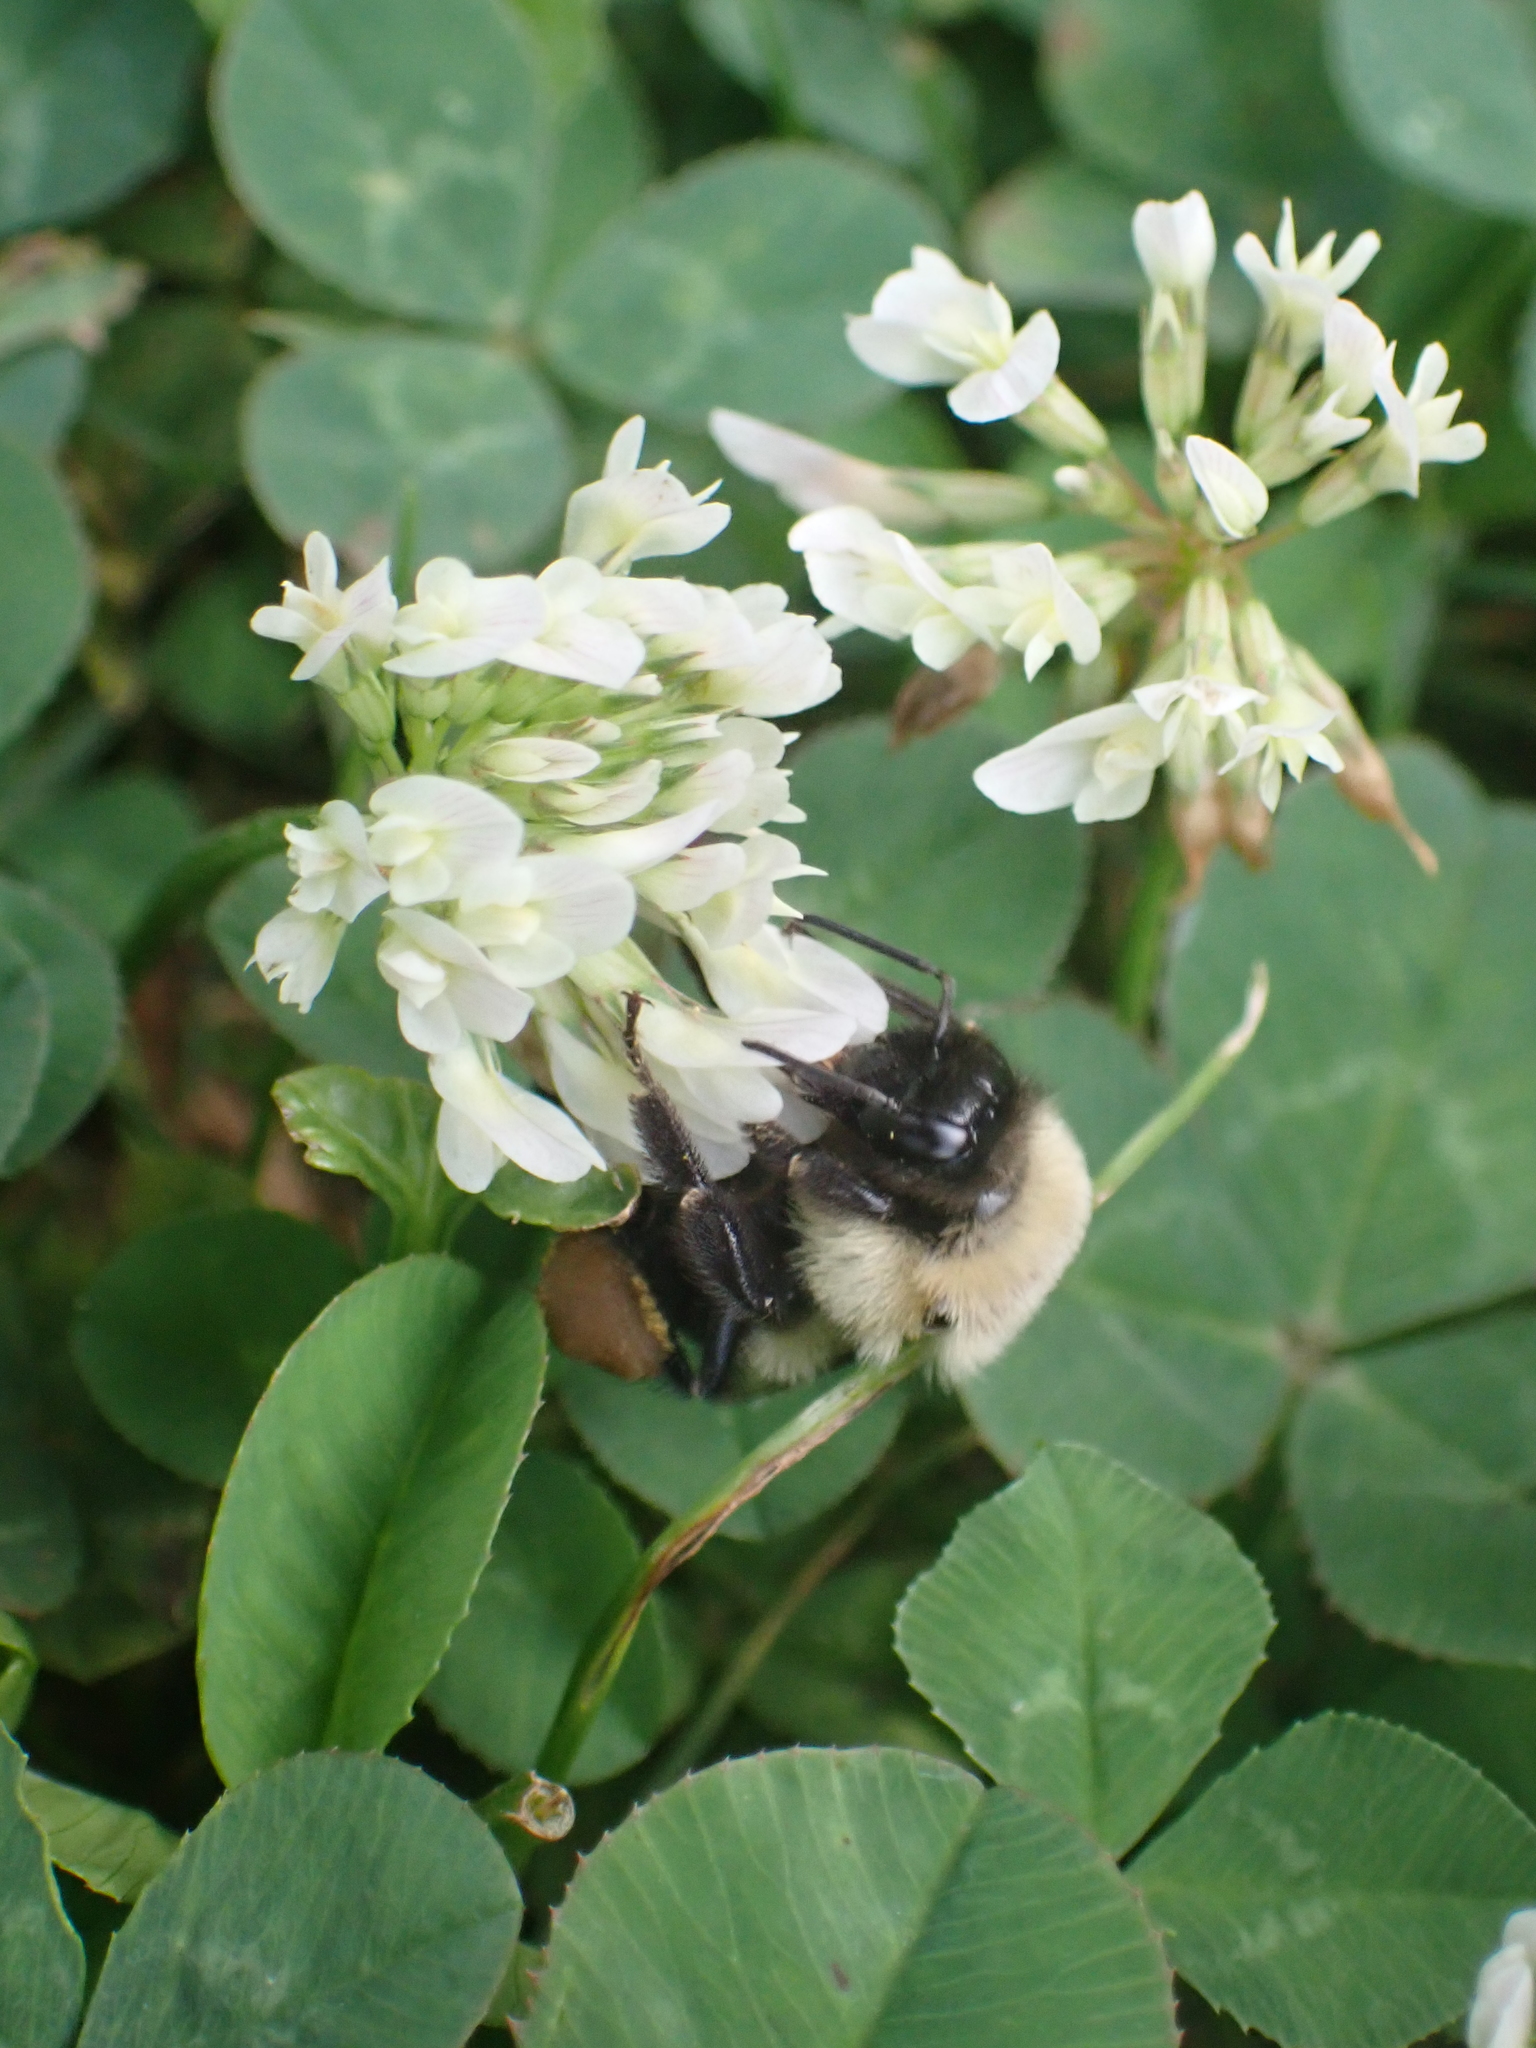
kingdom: Animalia
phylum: Arthropoda
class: Insecta
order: Hymenoptera
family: Apidae
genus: Bombus
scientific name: Bombus impatiens
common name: Common eastern bumble bee
